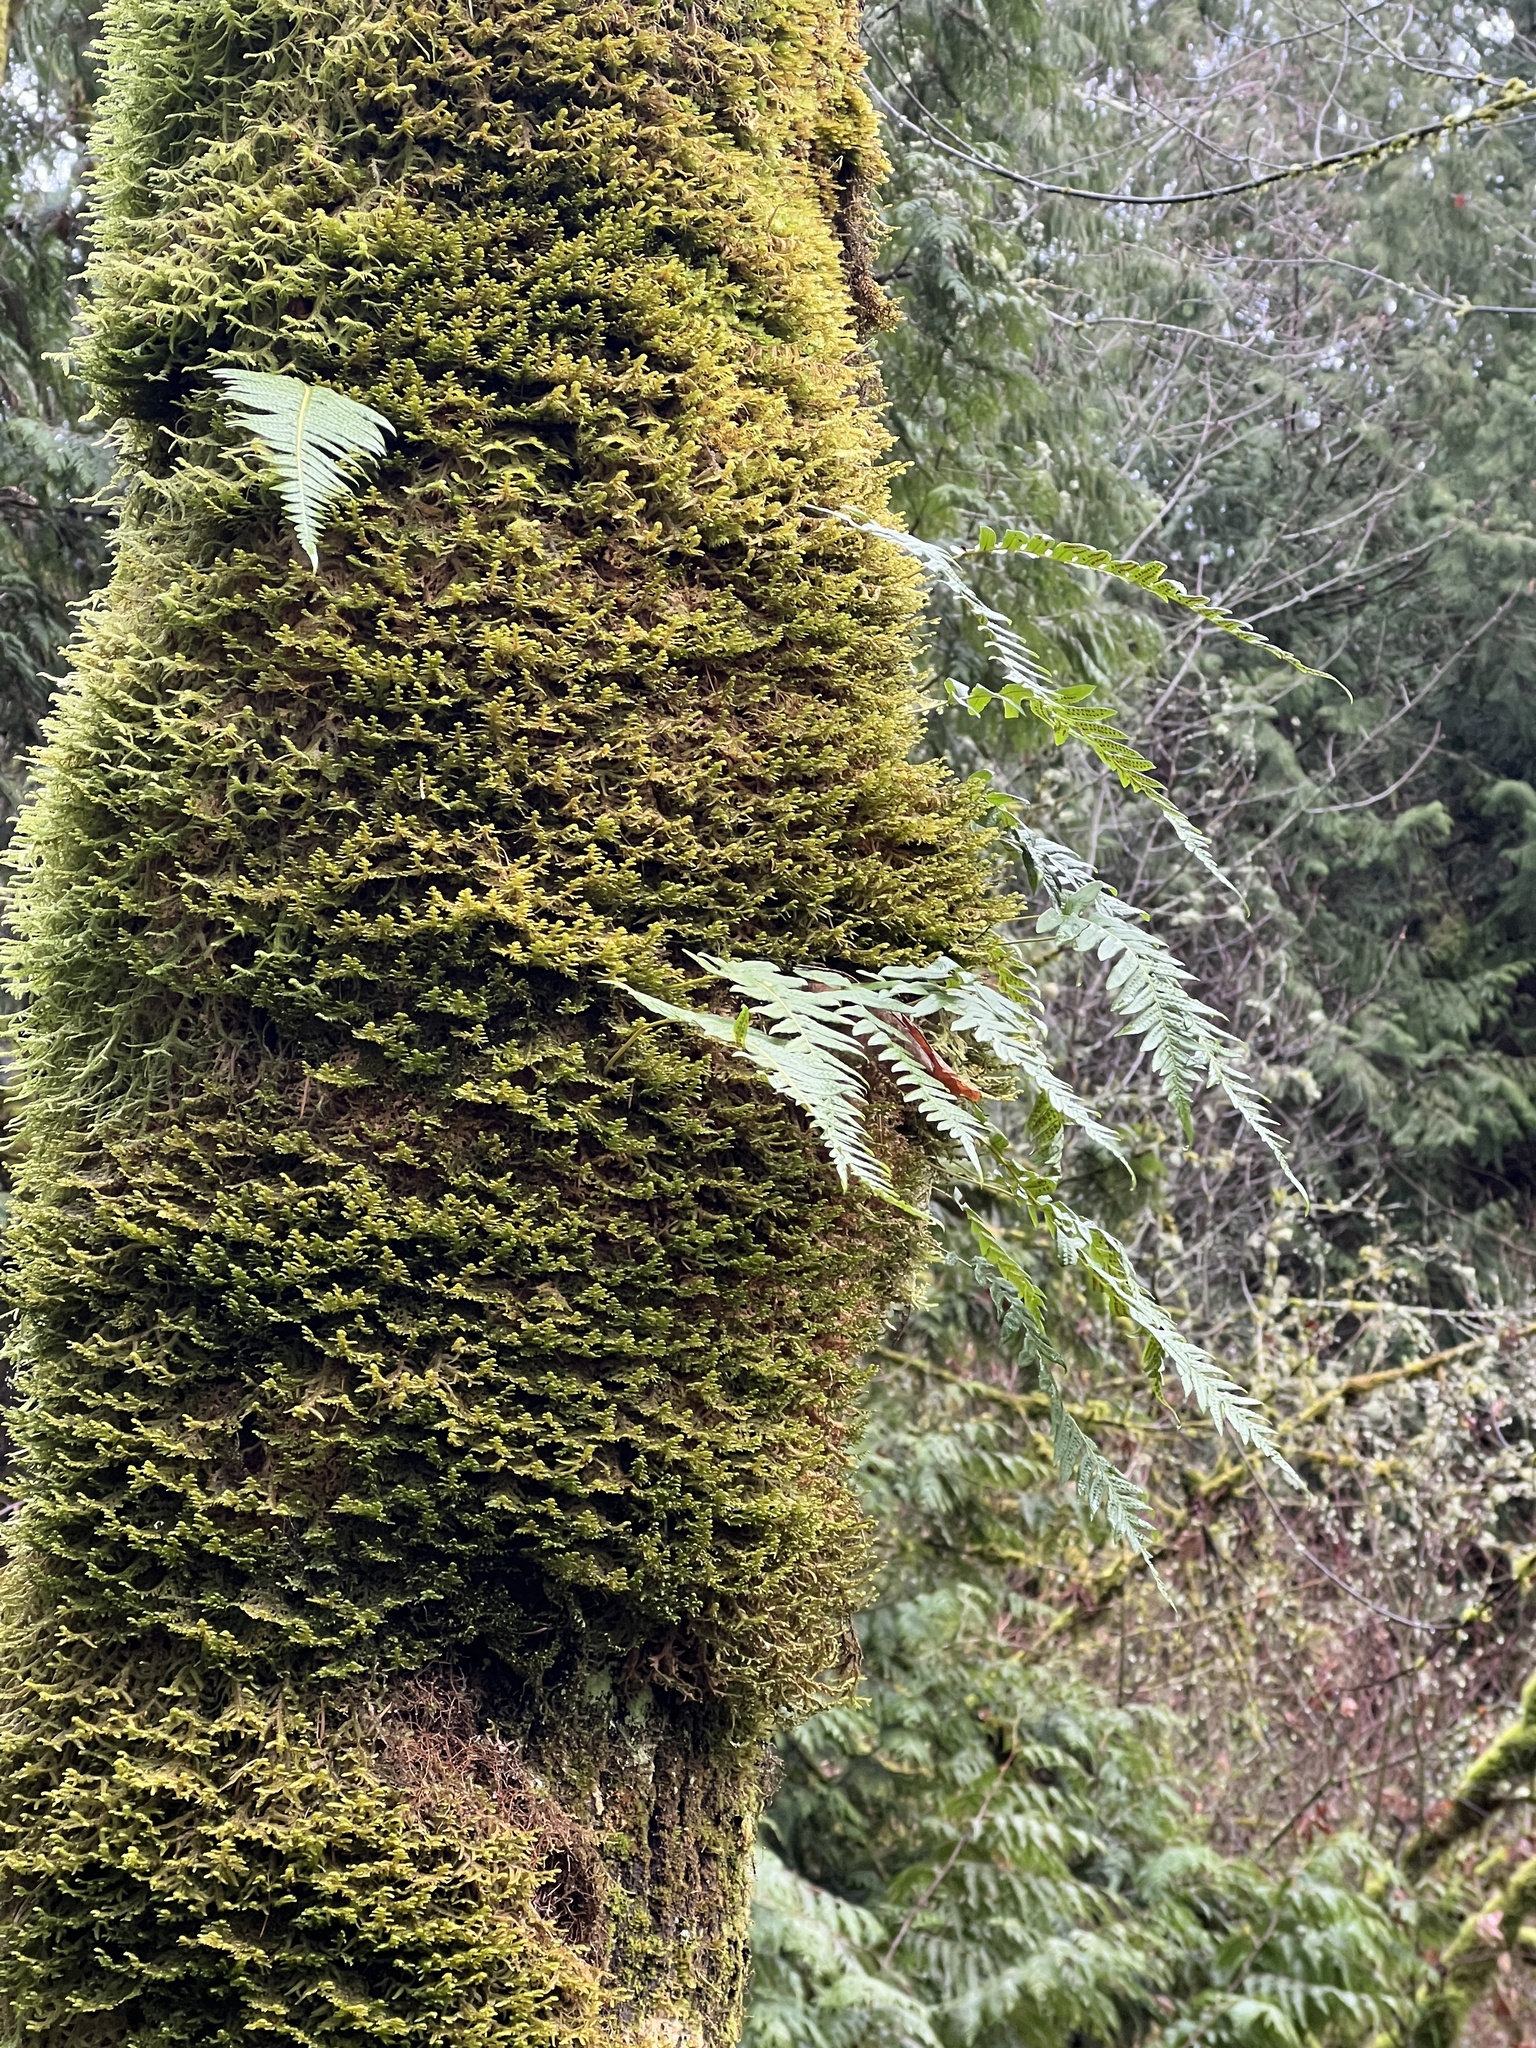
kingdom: Plantae
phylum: Tracheophyta
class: Polypodiopsida
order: Polypodiales
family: Polypodiaceae
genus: Polypodium
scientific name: Polypodium glycyrrhiza
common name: Licorice fern
